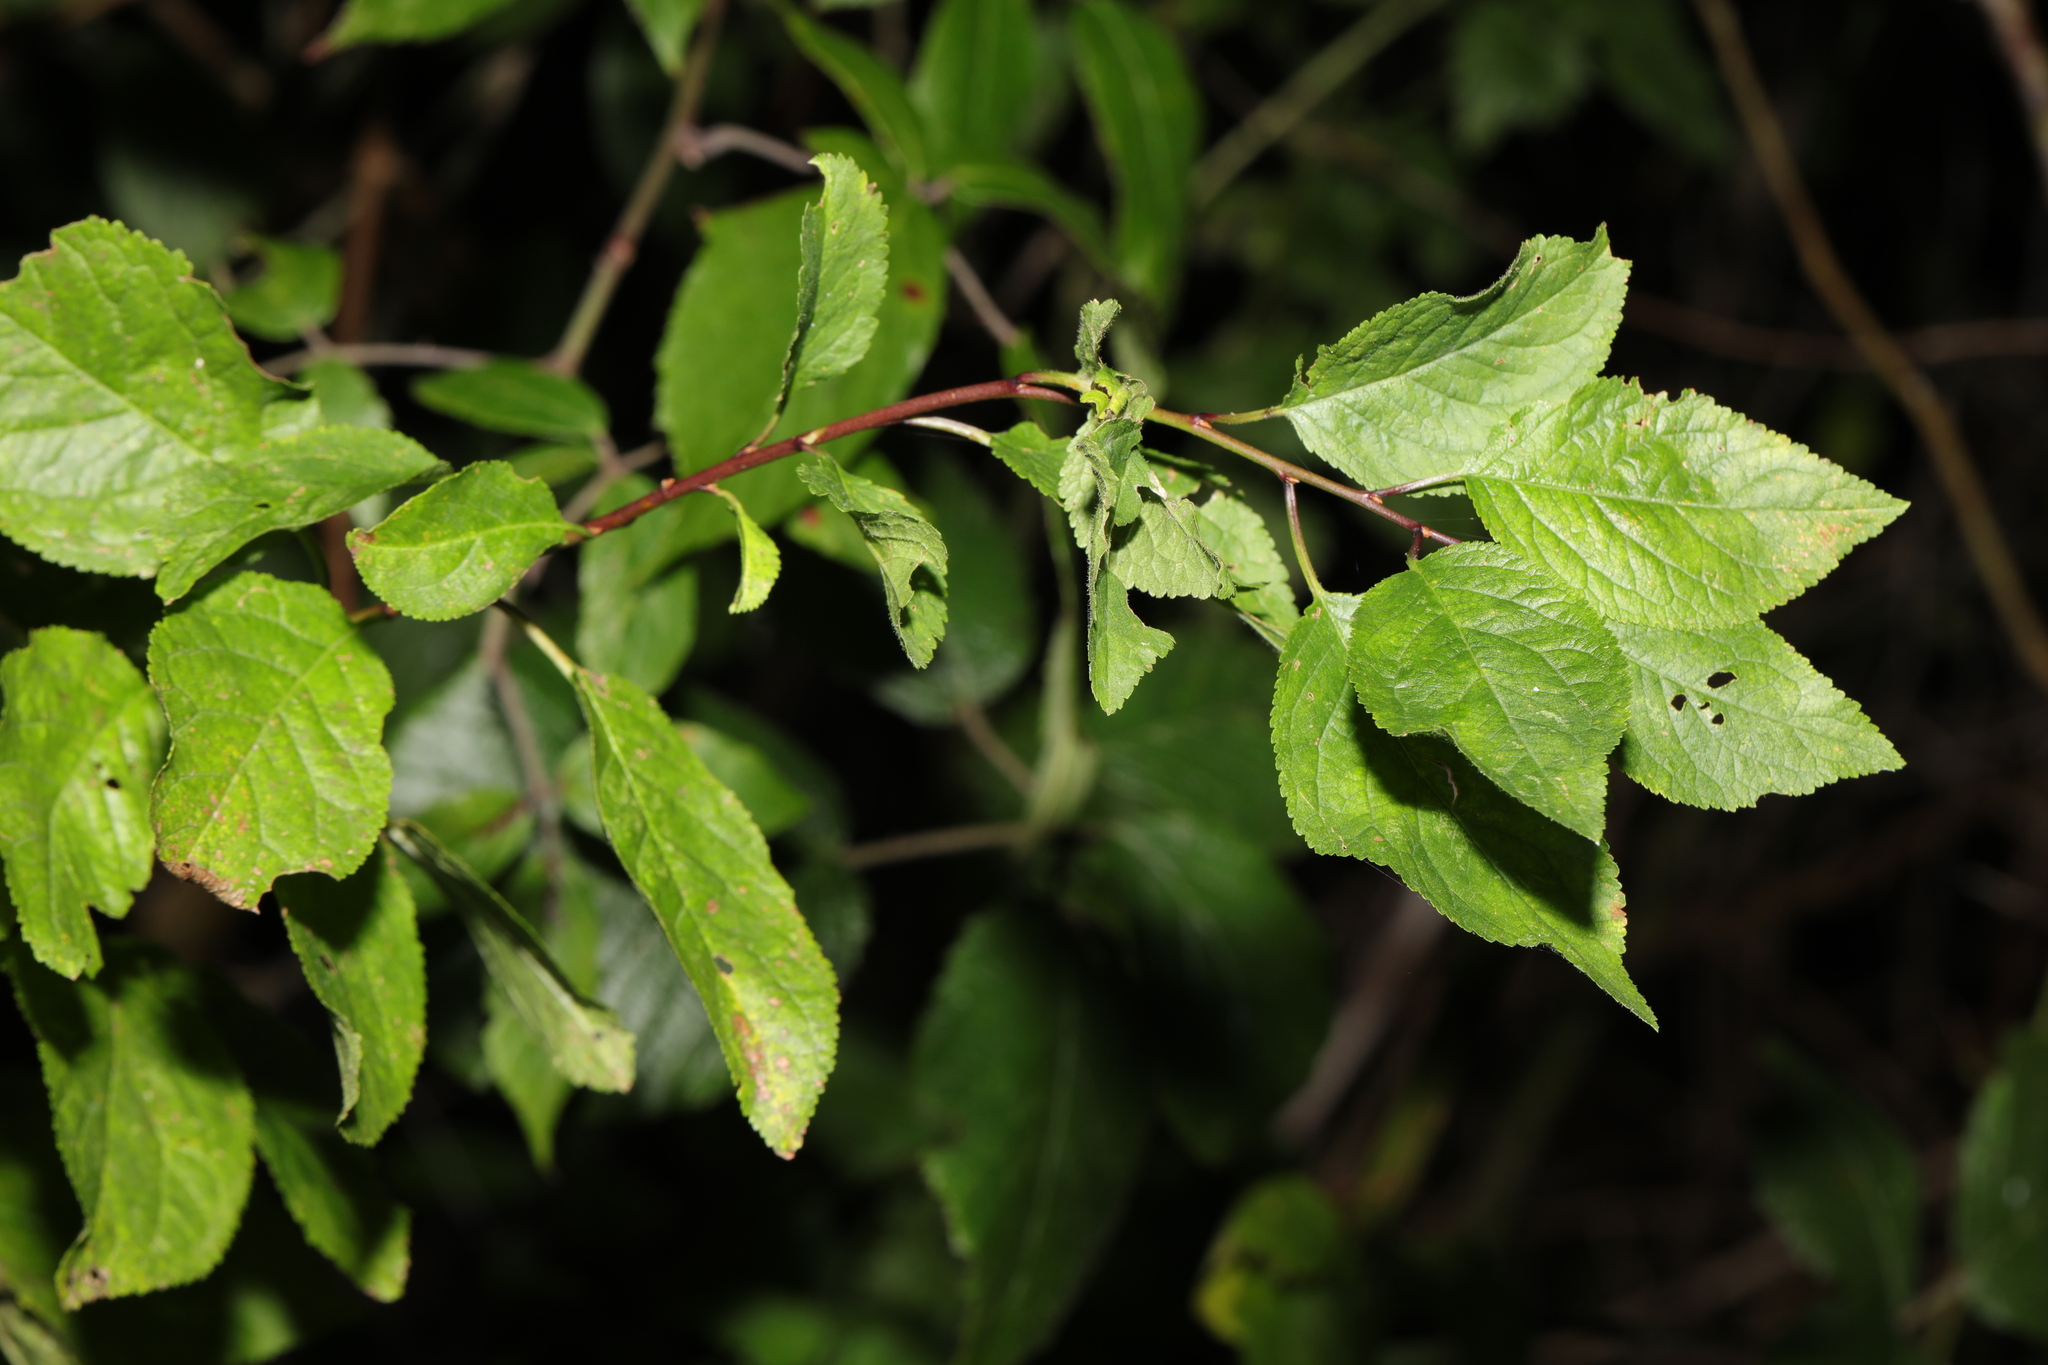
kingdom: Plantae
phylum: Tracheophyta
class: Magnoliopsida
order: Rosales
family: Rosaceae
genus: Prunus
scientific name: Prunus spinosa
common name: Blackthorn
